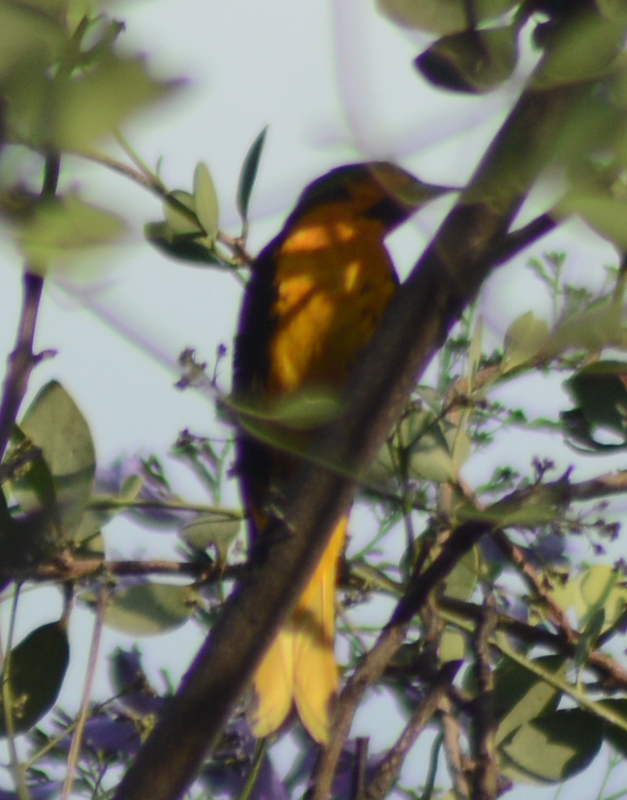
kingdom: Animalia
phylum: Chordata
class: Aves
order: Passeriformes
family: Icteridae
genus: Icterus
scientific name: Icterus abeillei
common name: Black-backed oriole
